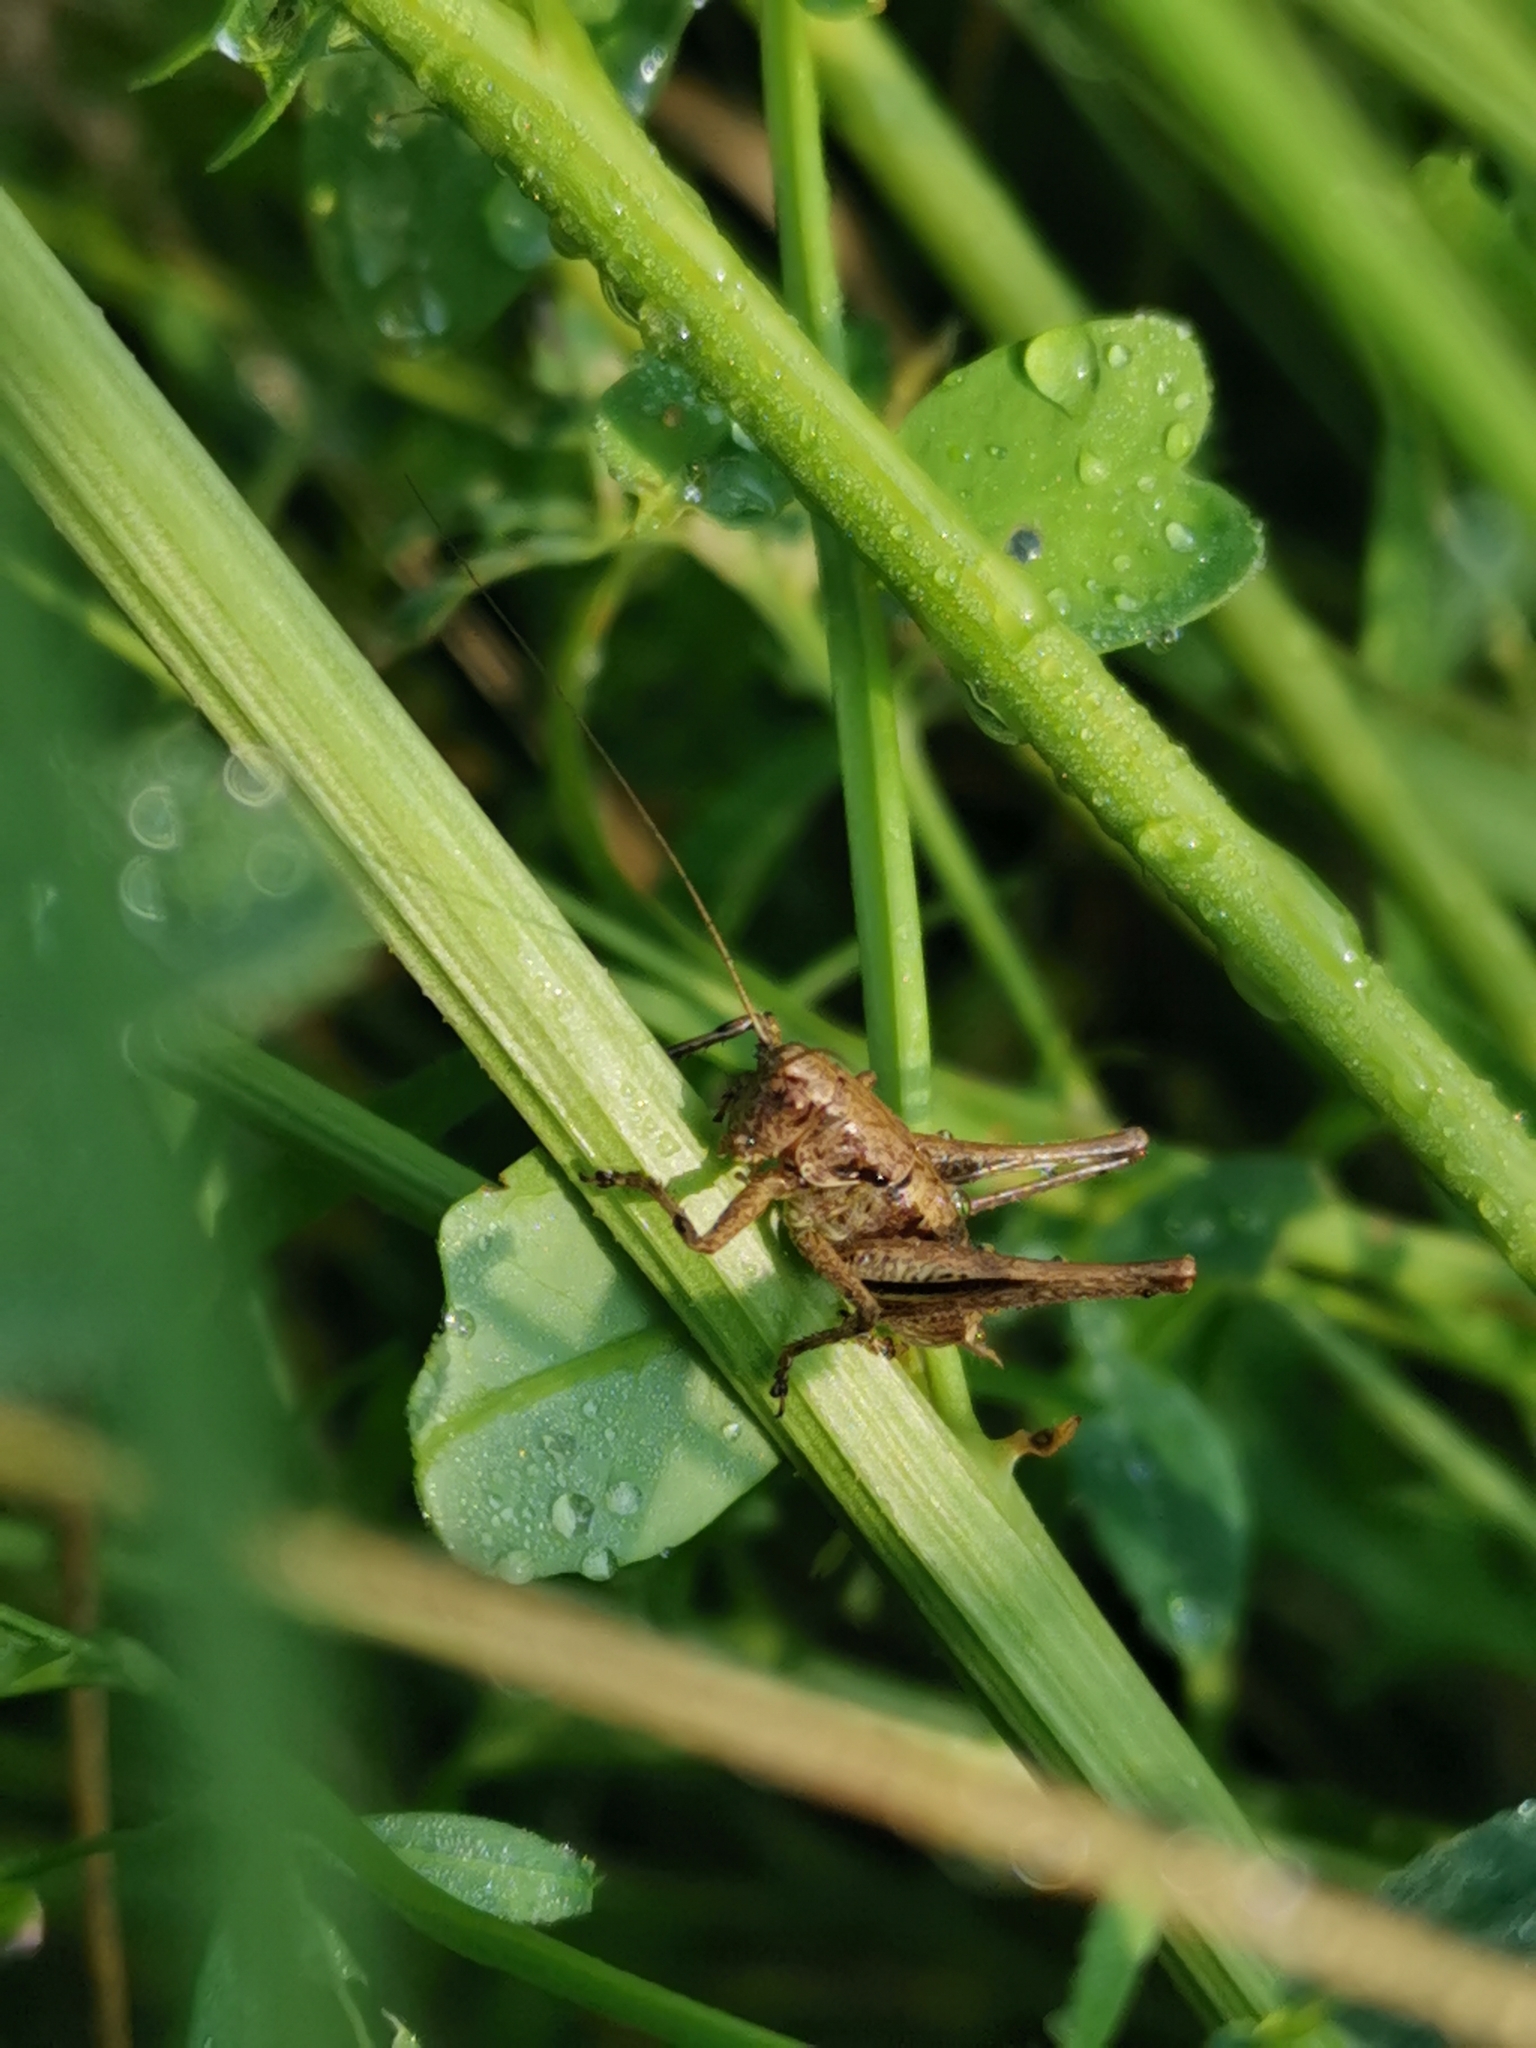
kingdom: Animalia
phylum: Arthropoda
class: Insecta
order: Orthoptera
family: Tettigoniidae
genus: Pholidoptera
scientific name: Pholidoptera griseoaptera
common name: Dark bush-cricket
